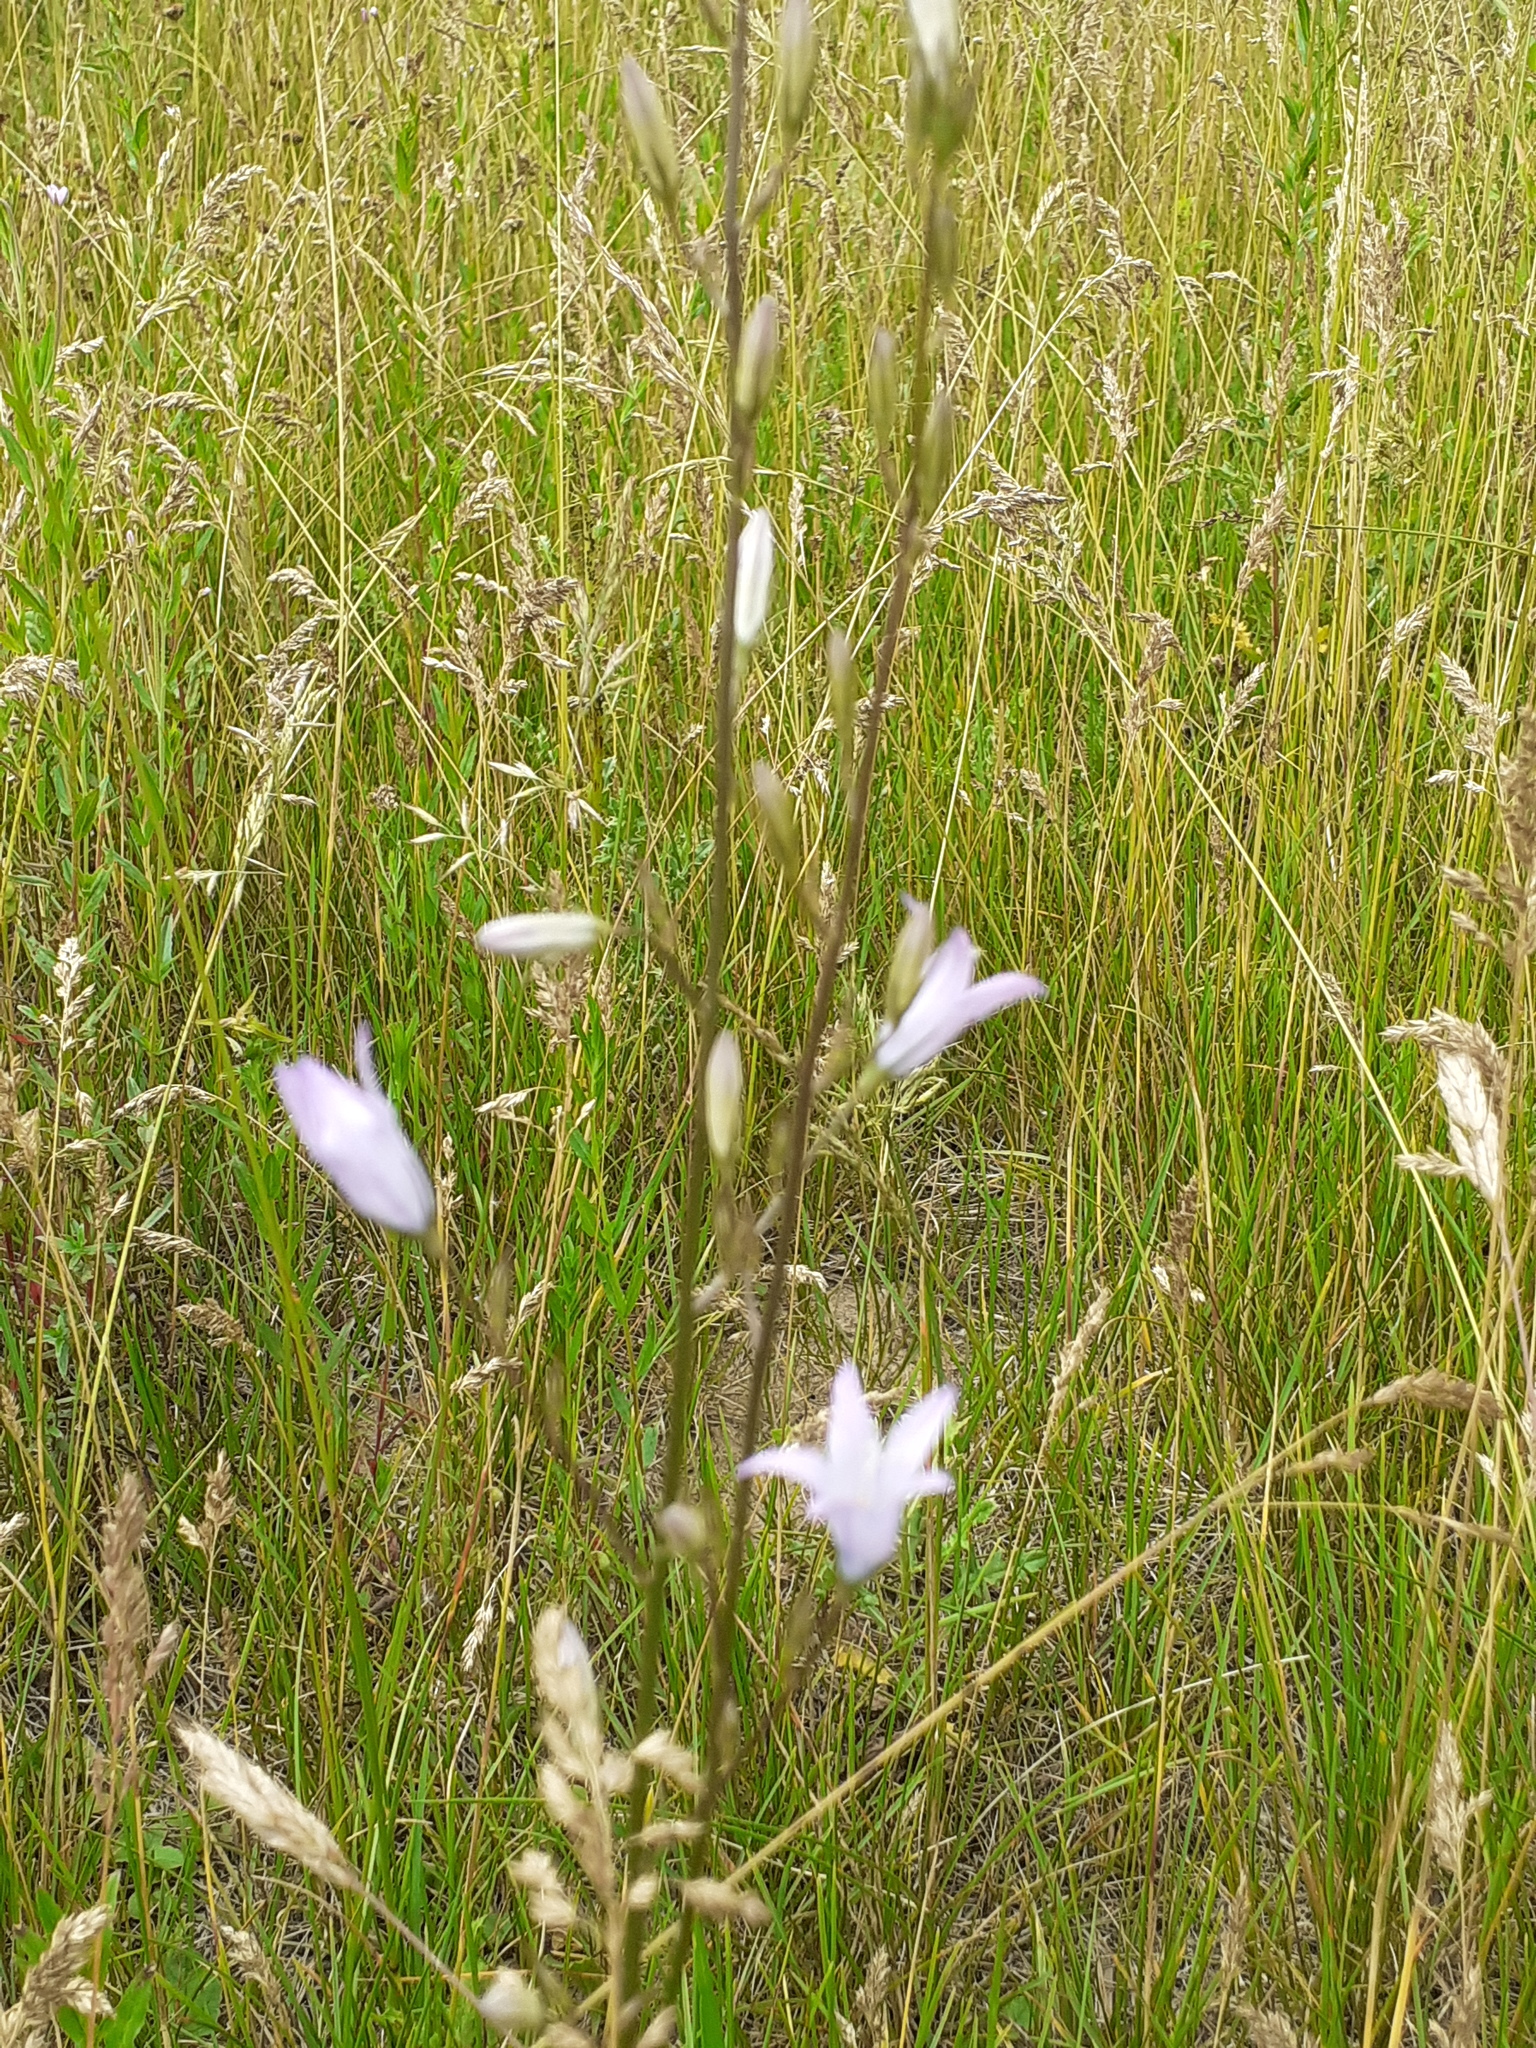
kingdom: Plantae
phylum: Tracheophyta
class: Magnoliopsida
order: Asterales
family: Campanulaceae
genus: Campanula
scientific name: Campanula rapunculus
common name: Rampion bellflower
